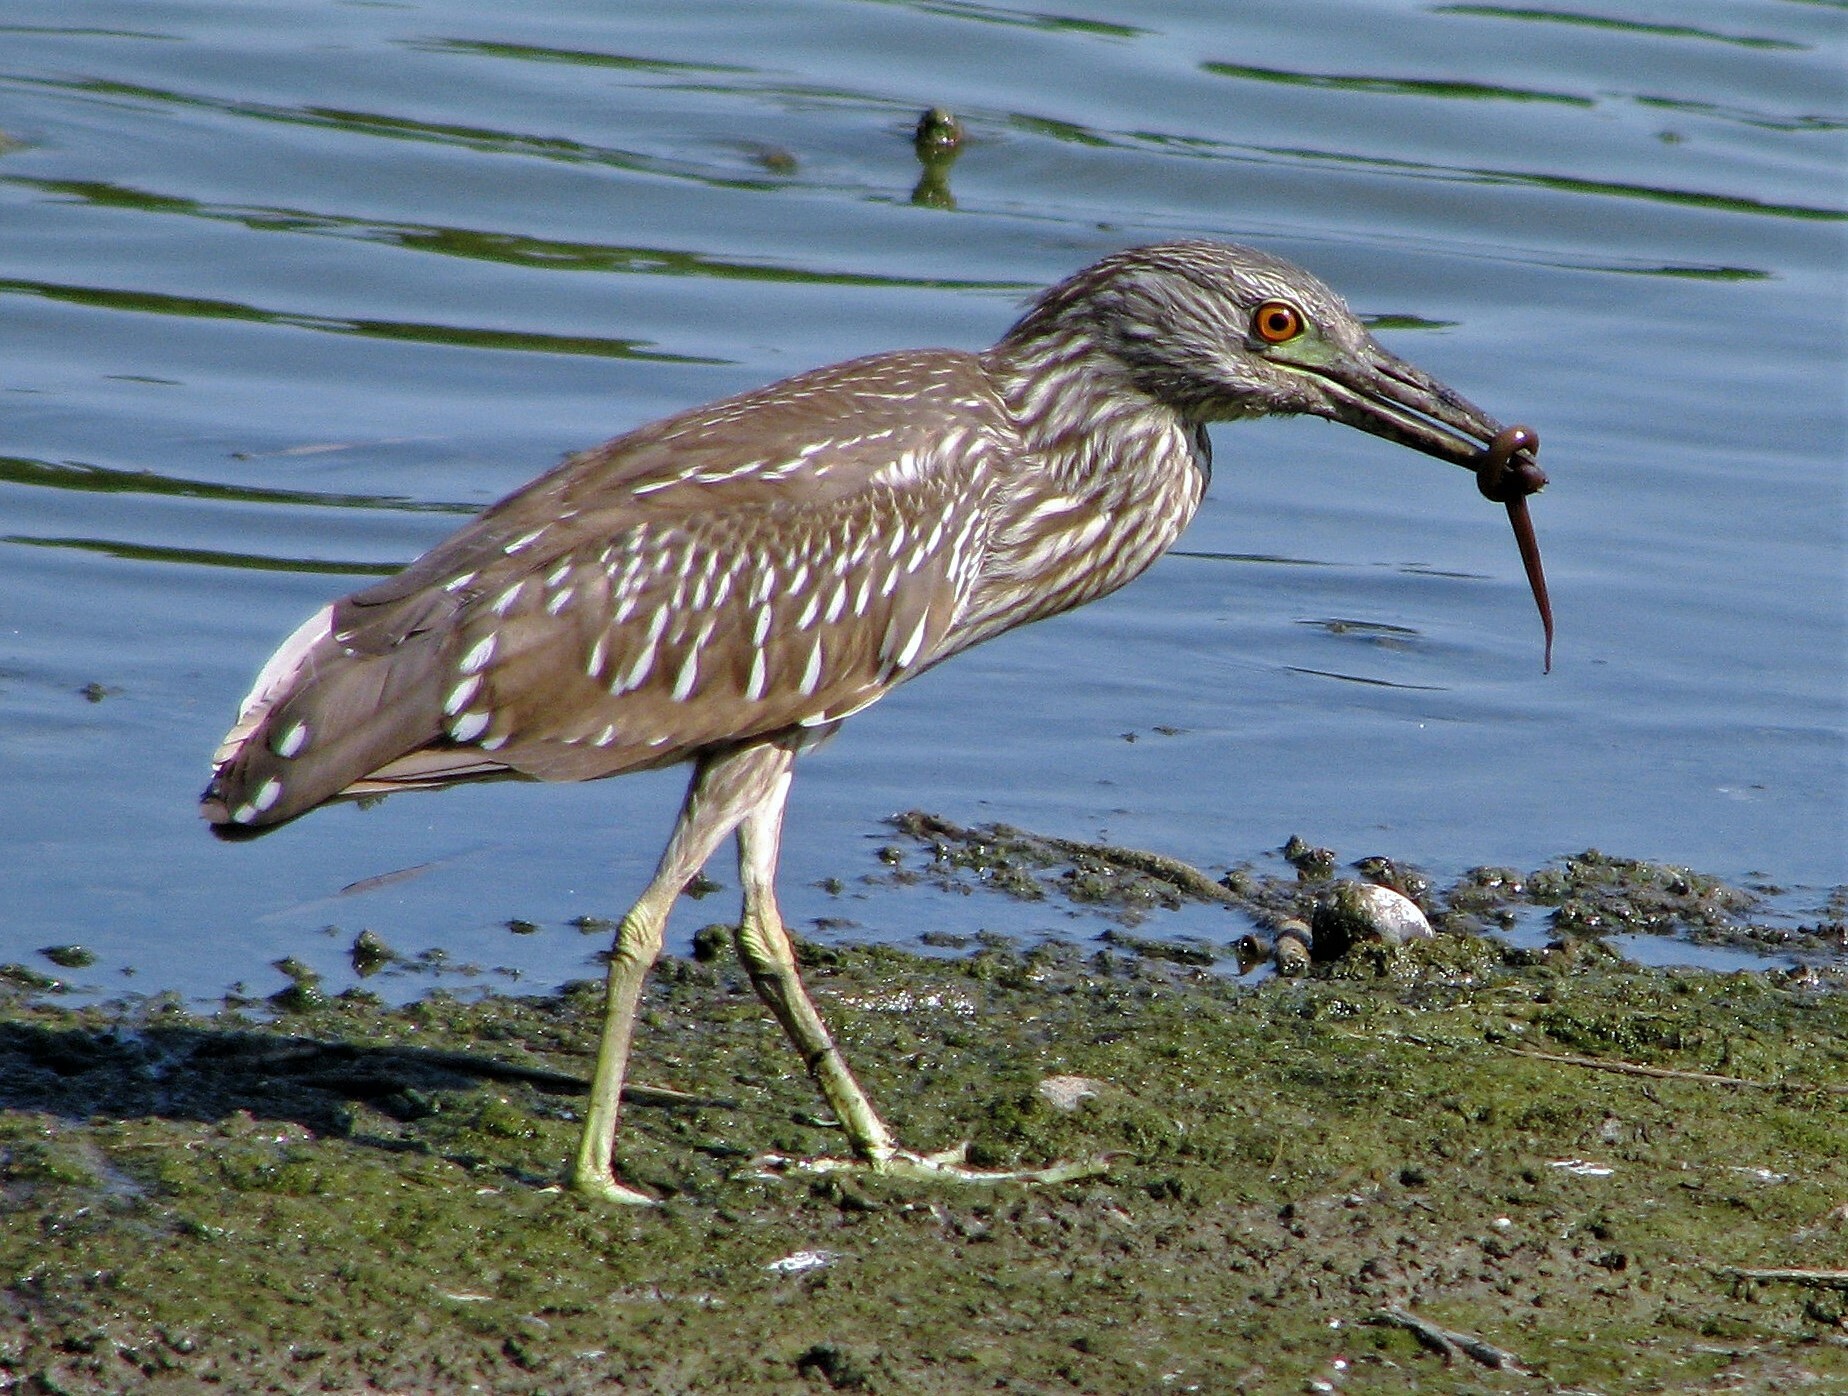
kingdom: Animalia
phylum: Chordata
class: Aves
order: Pelecaniformes
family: Ardeidae
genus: Nycticorax
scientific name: Nycticorax nycticorax
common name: Black-crowned night heron
